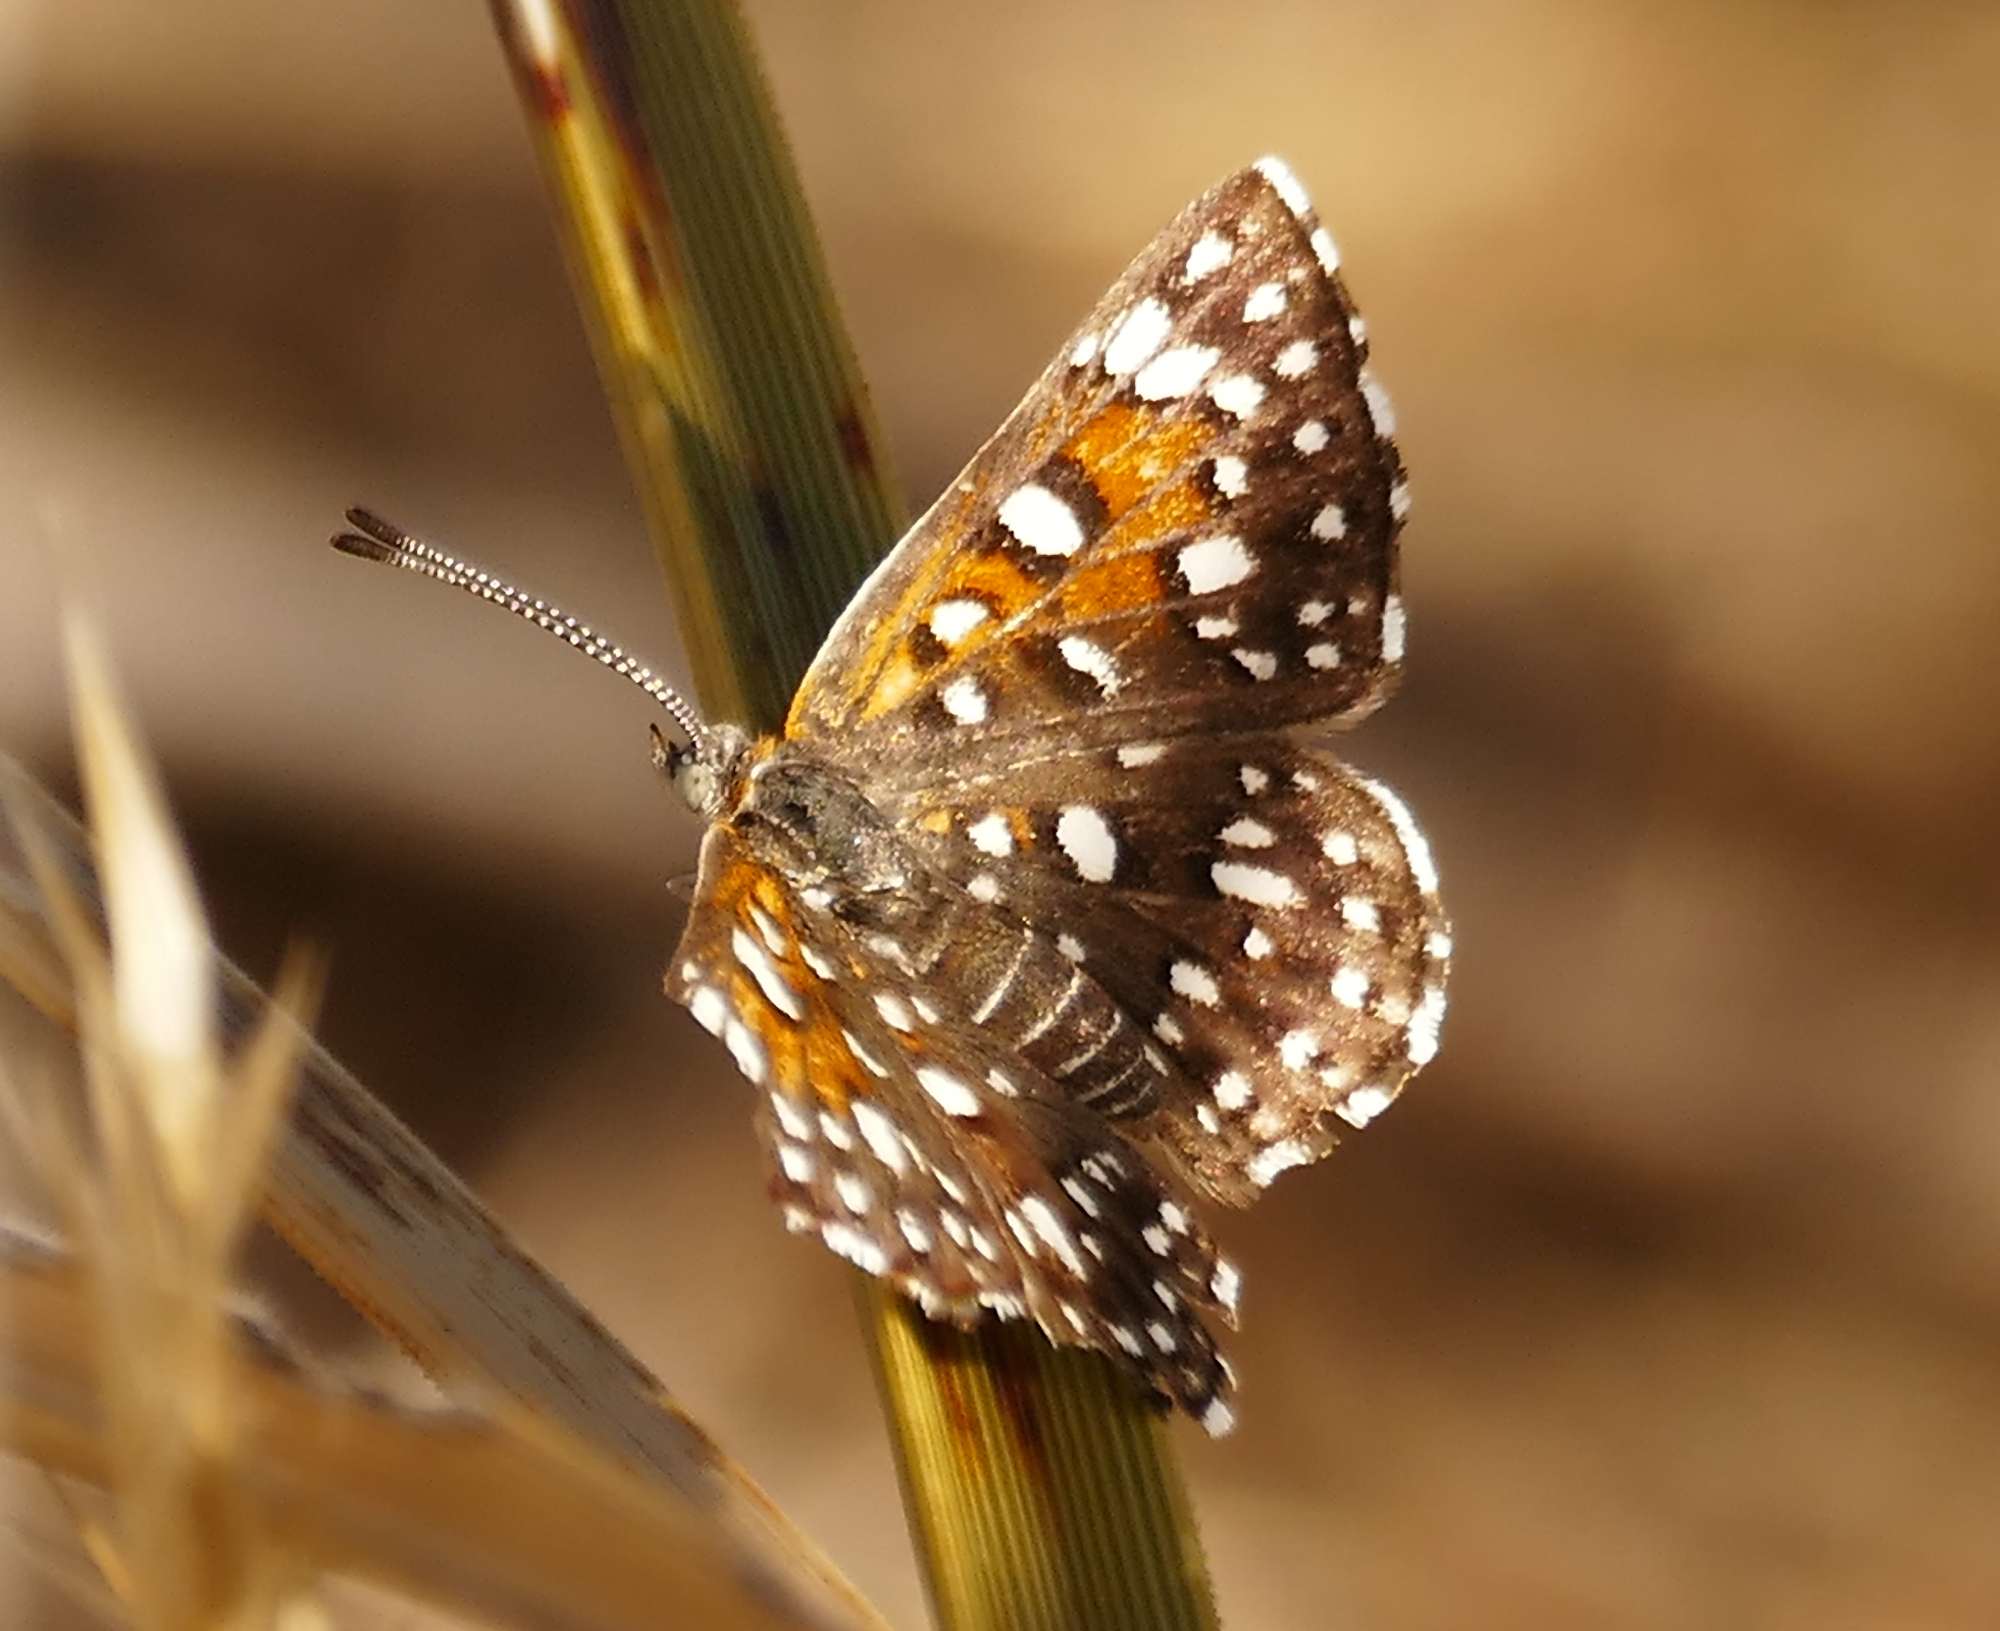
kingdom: Animalia
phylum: Arthropoda
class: Insecta
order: Lepidoptera
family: Riodinidae
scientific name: Riodinidae
